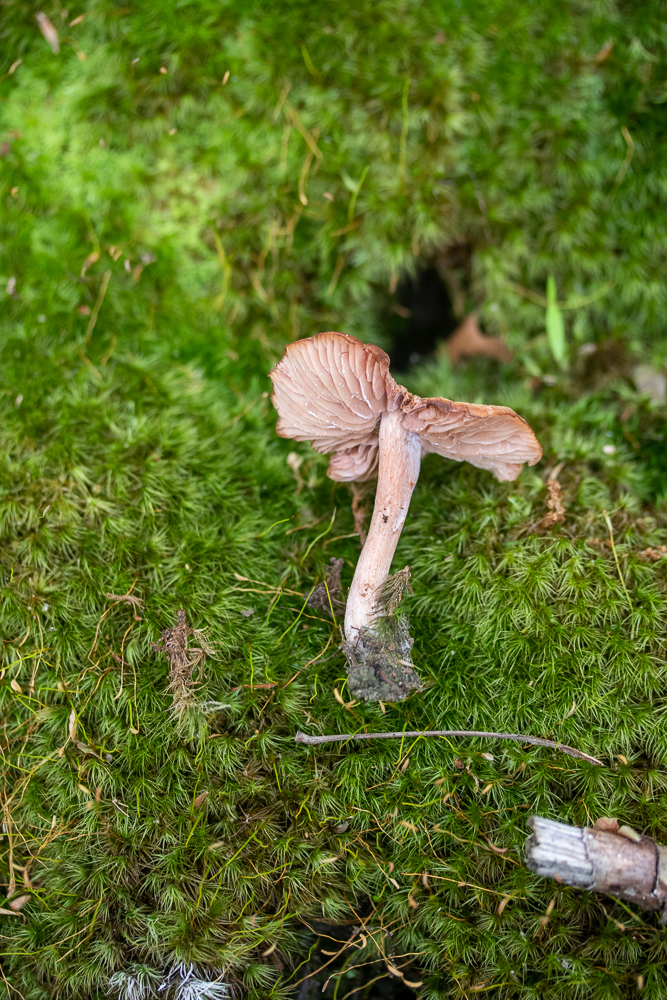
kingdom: Fungi
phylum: Basidiomycota
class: Agaricomycetes
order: Agaricales
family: Hydnangiaceae
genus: Laccaria
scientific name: Laccaria laccata
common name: Deceiver
